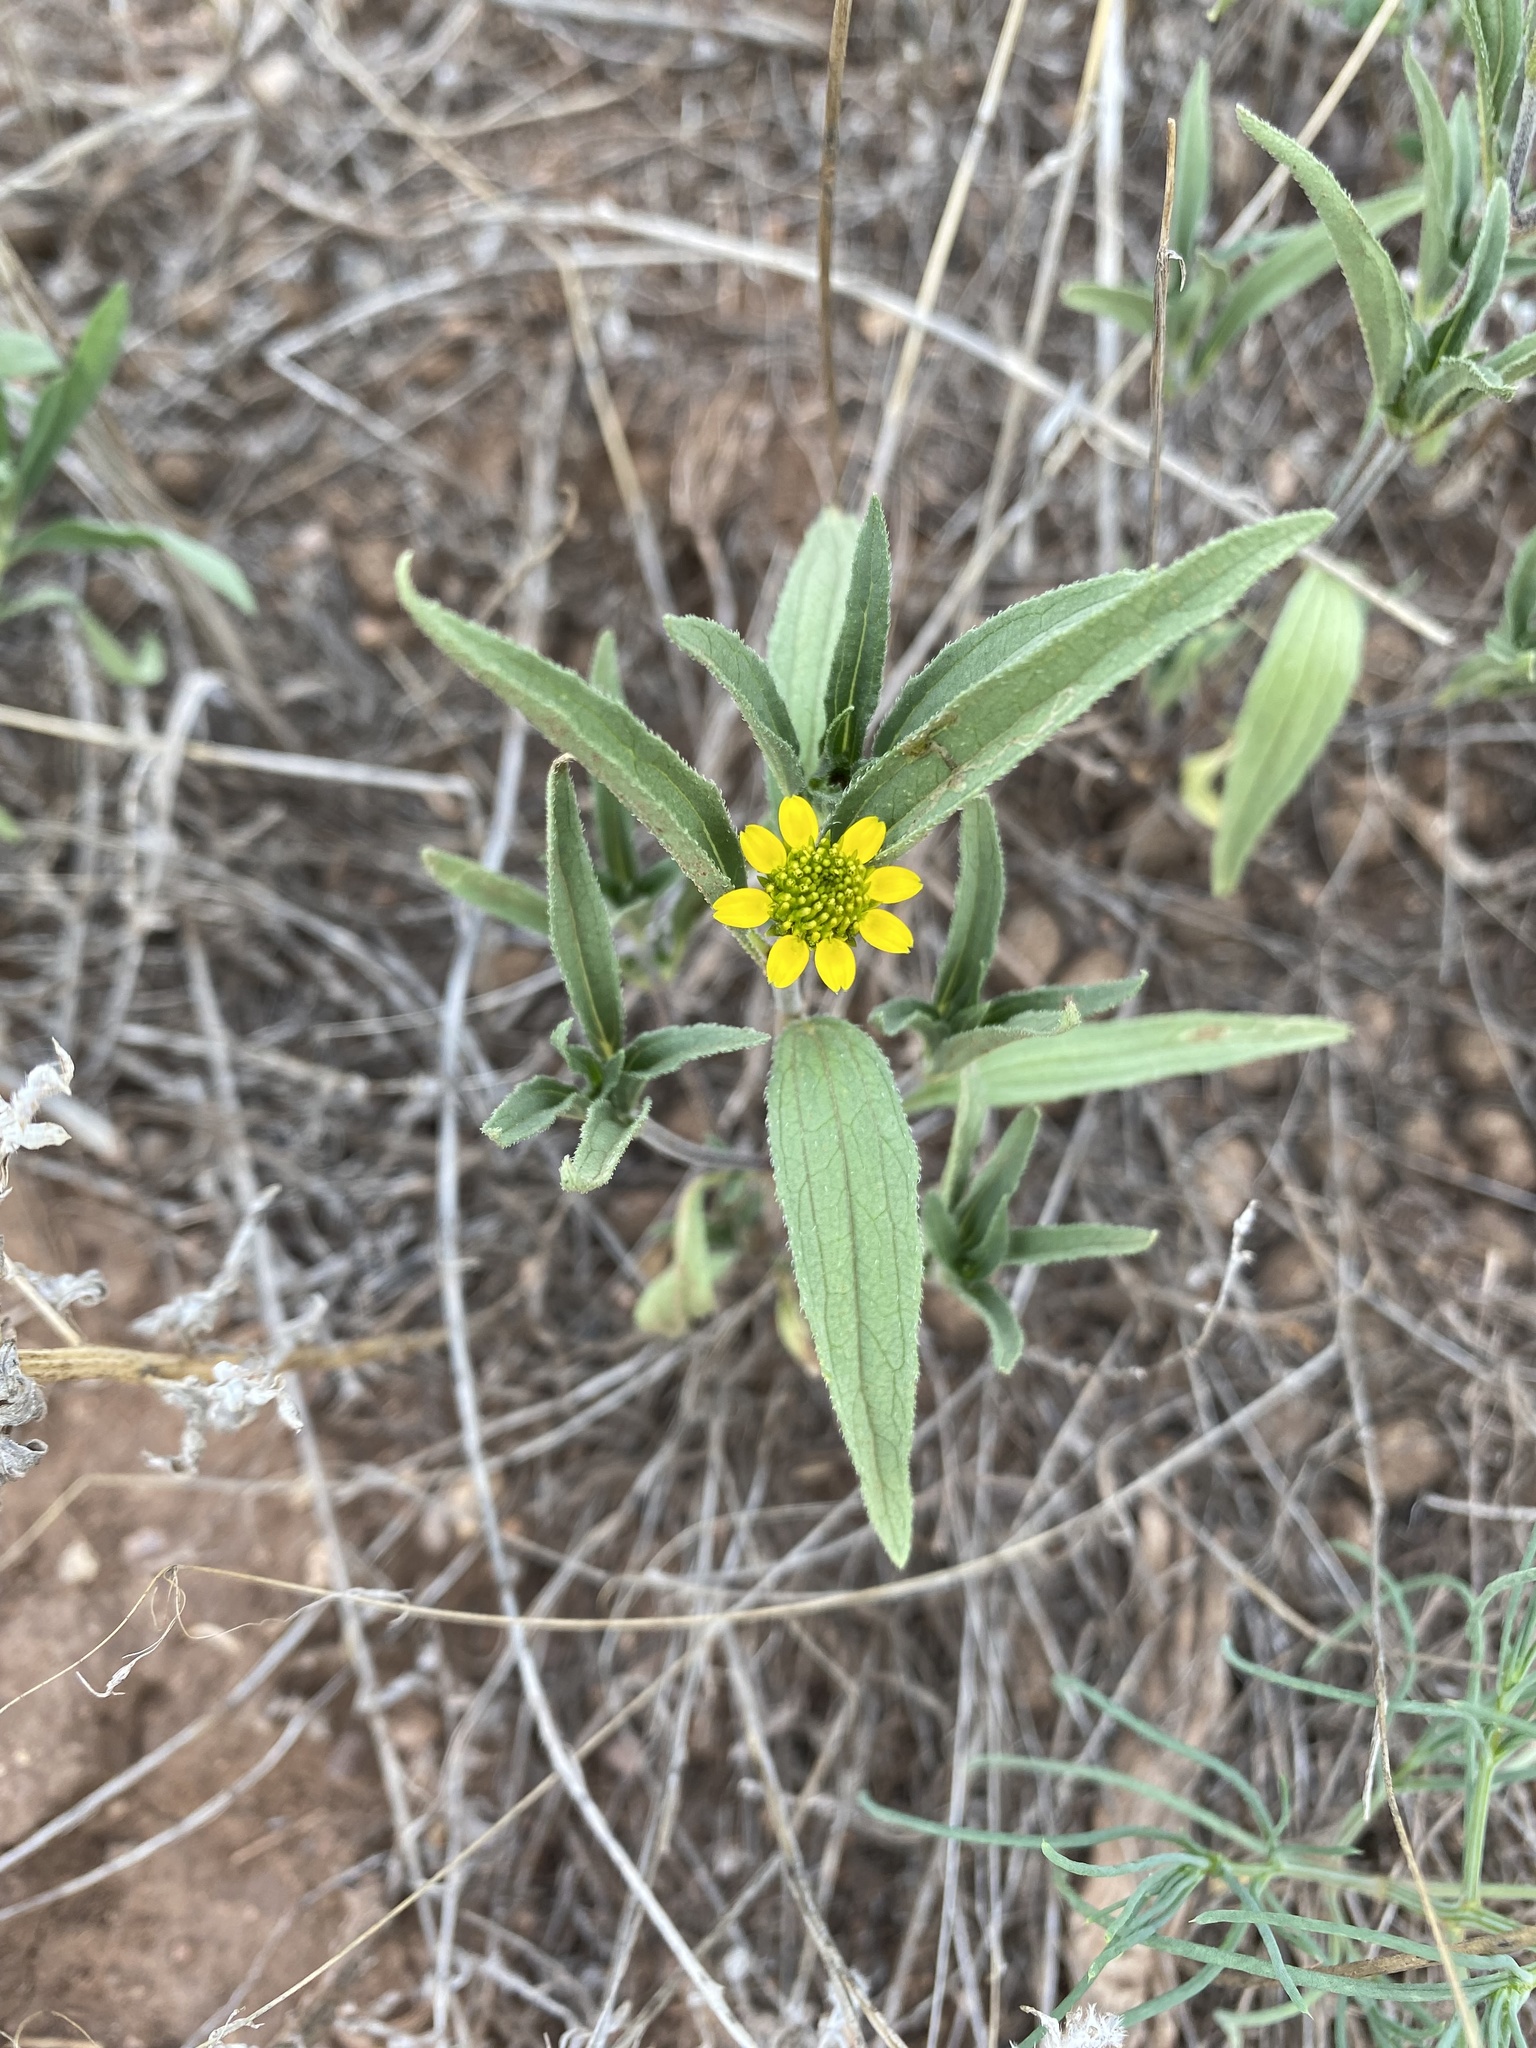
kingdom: Plantae
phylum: Tracheophyta
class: Magnoliopsida
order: Asterales
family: Asteraceae
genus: Sanvitalia
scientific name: Sanvitalia abertii
